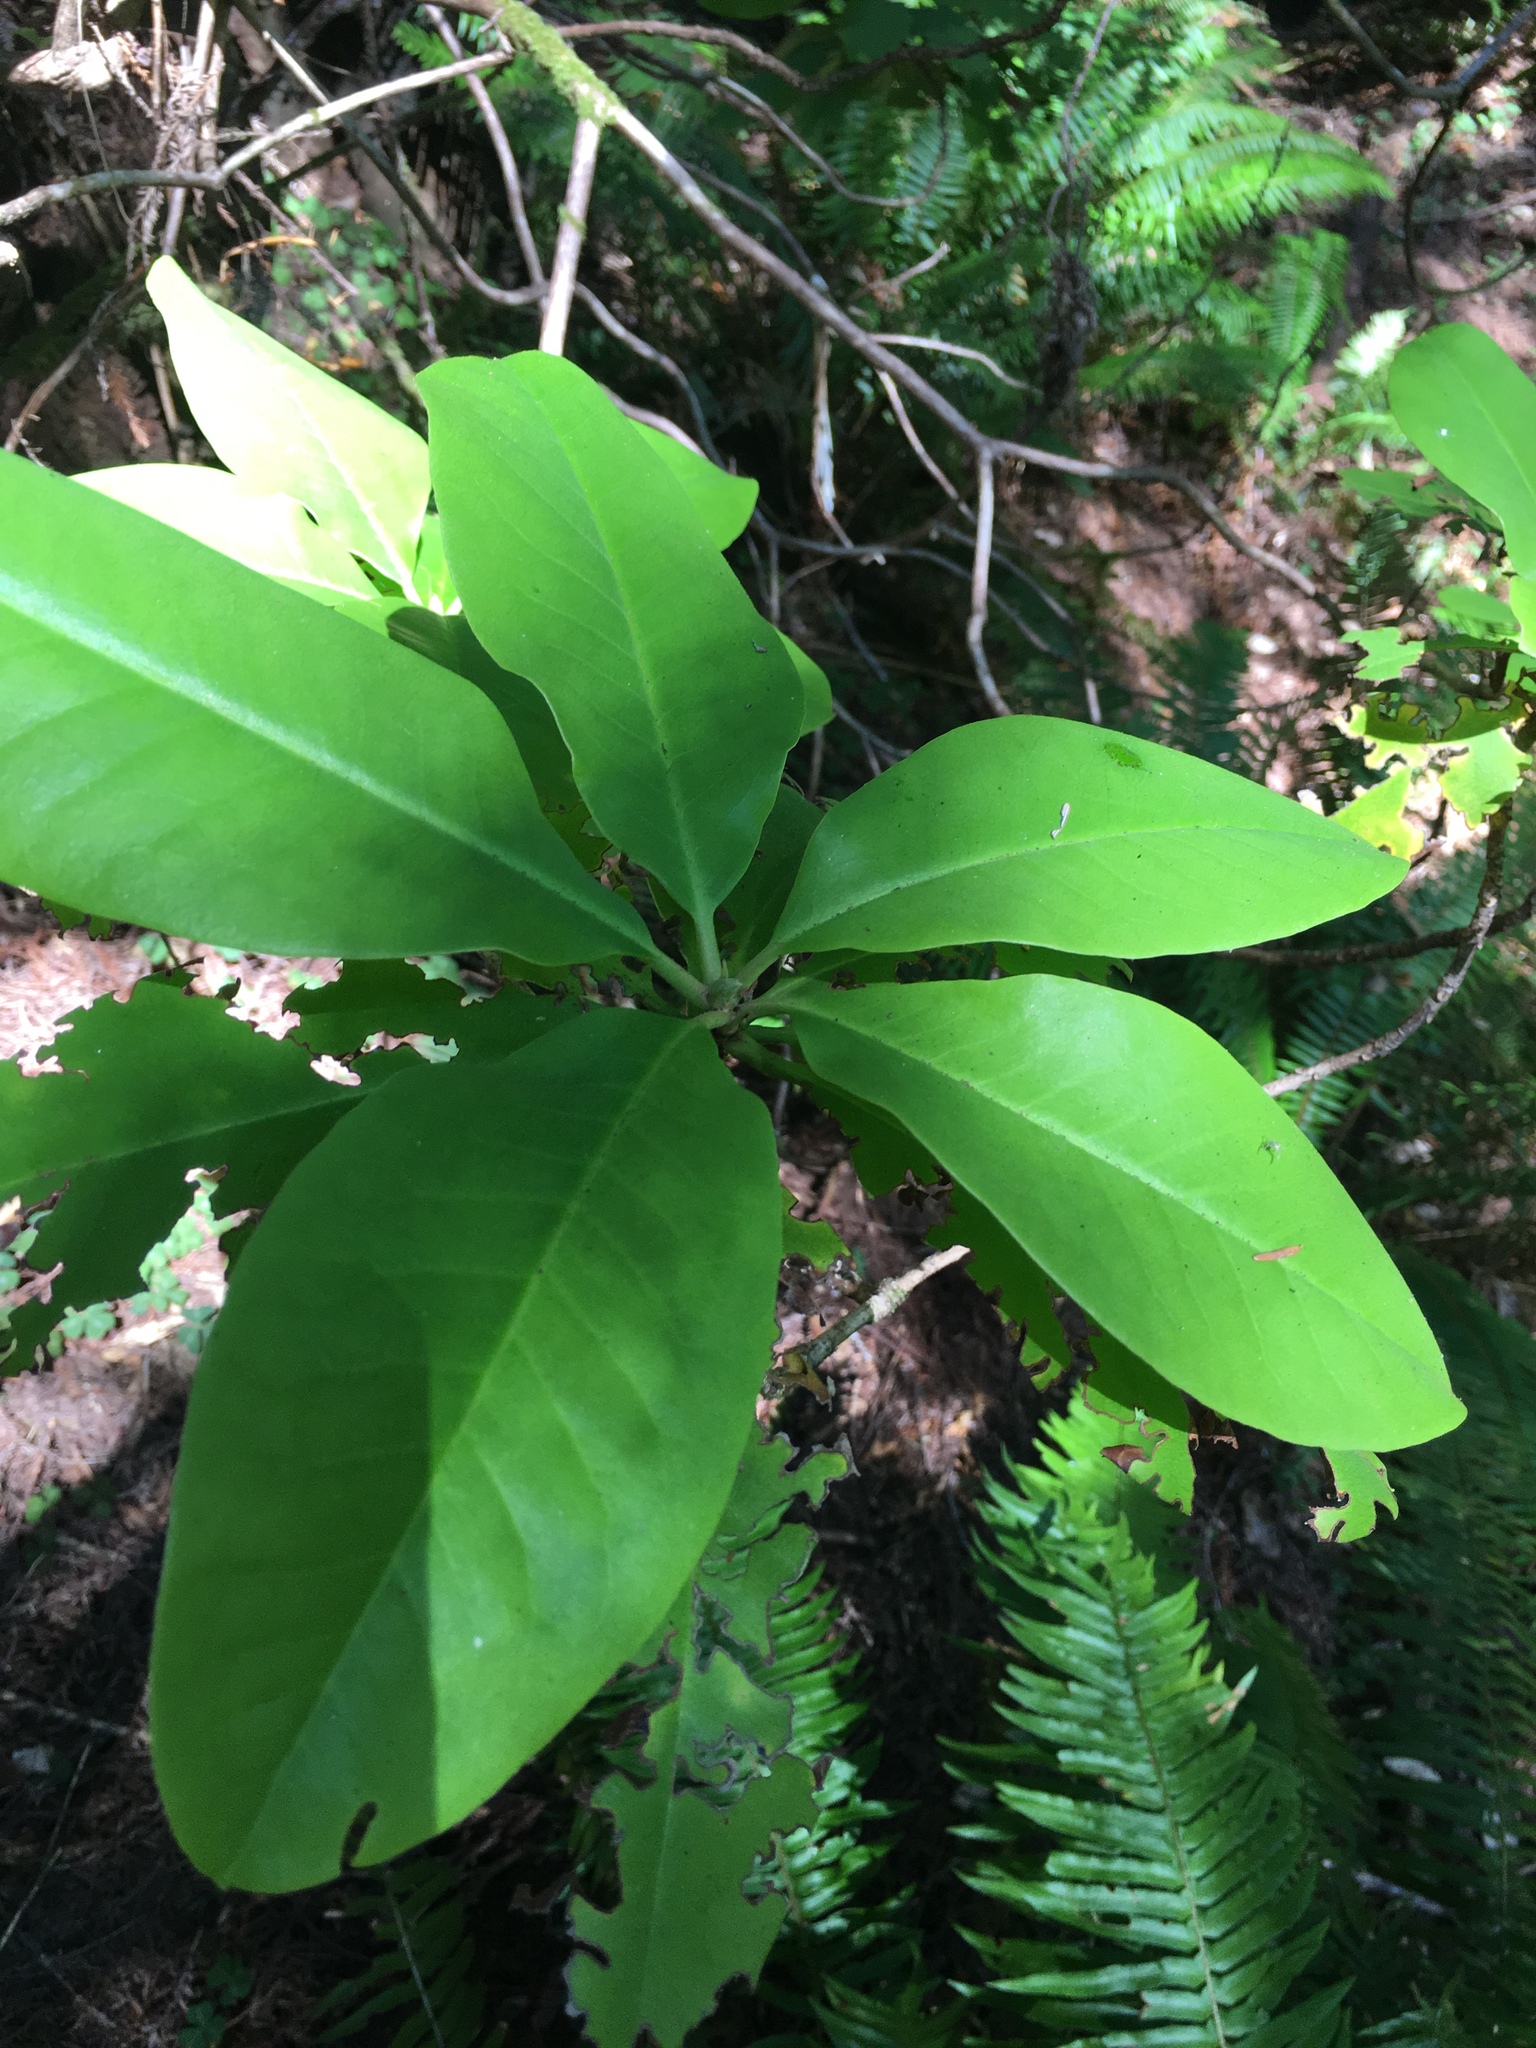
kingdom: Plantae
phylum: Tracheophyta
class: Magnoliopsida
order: Ericales
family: Ericaceae
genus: Rhododendron
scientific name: Rhododendron macrophyllum
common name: California rose bay
